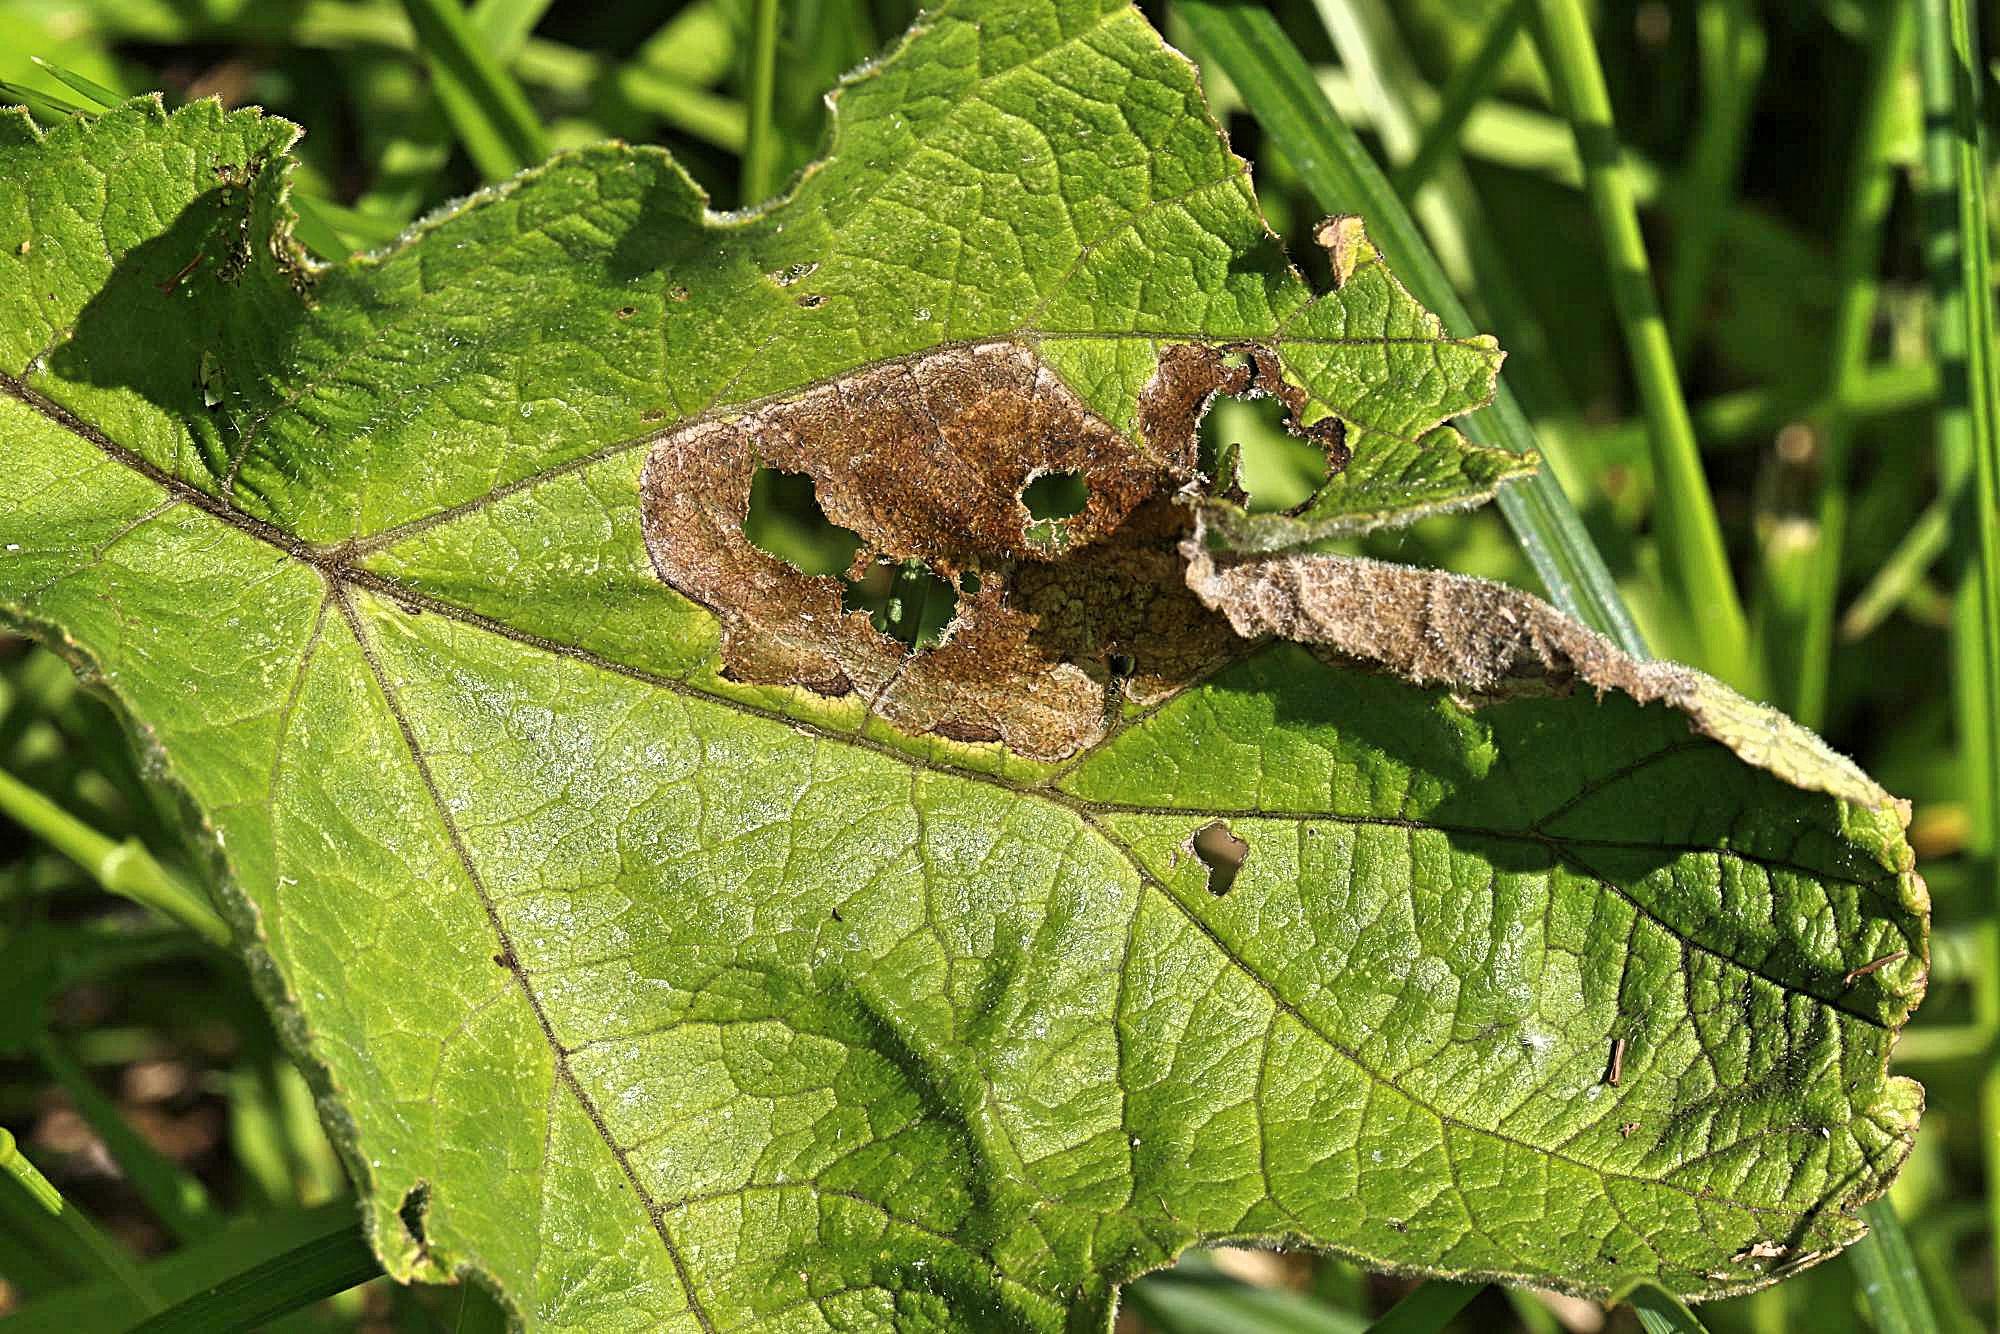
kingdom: Animalia
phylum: Arthropoda
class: Insecta
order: Lepidoptera
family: Epermeniidae
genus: Epermenia
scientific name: Epermenia chaerophyllellus
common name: Garden lance-wing
